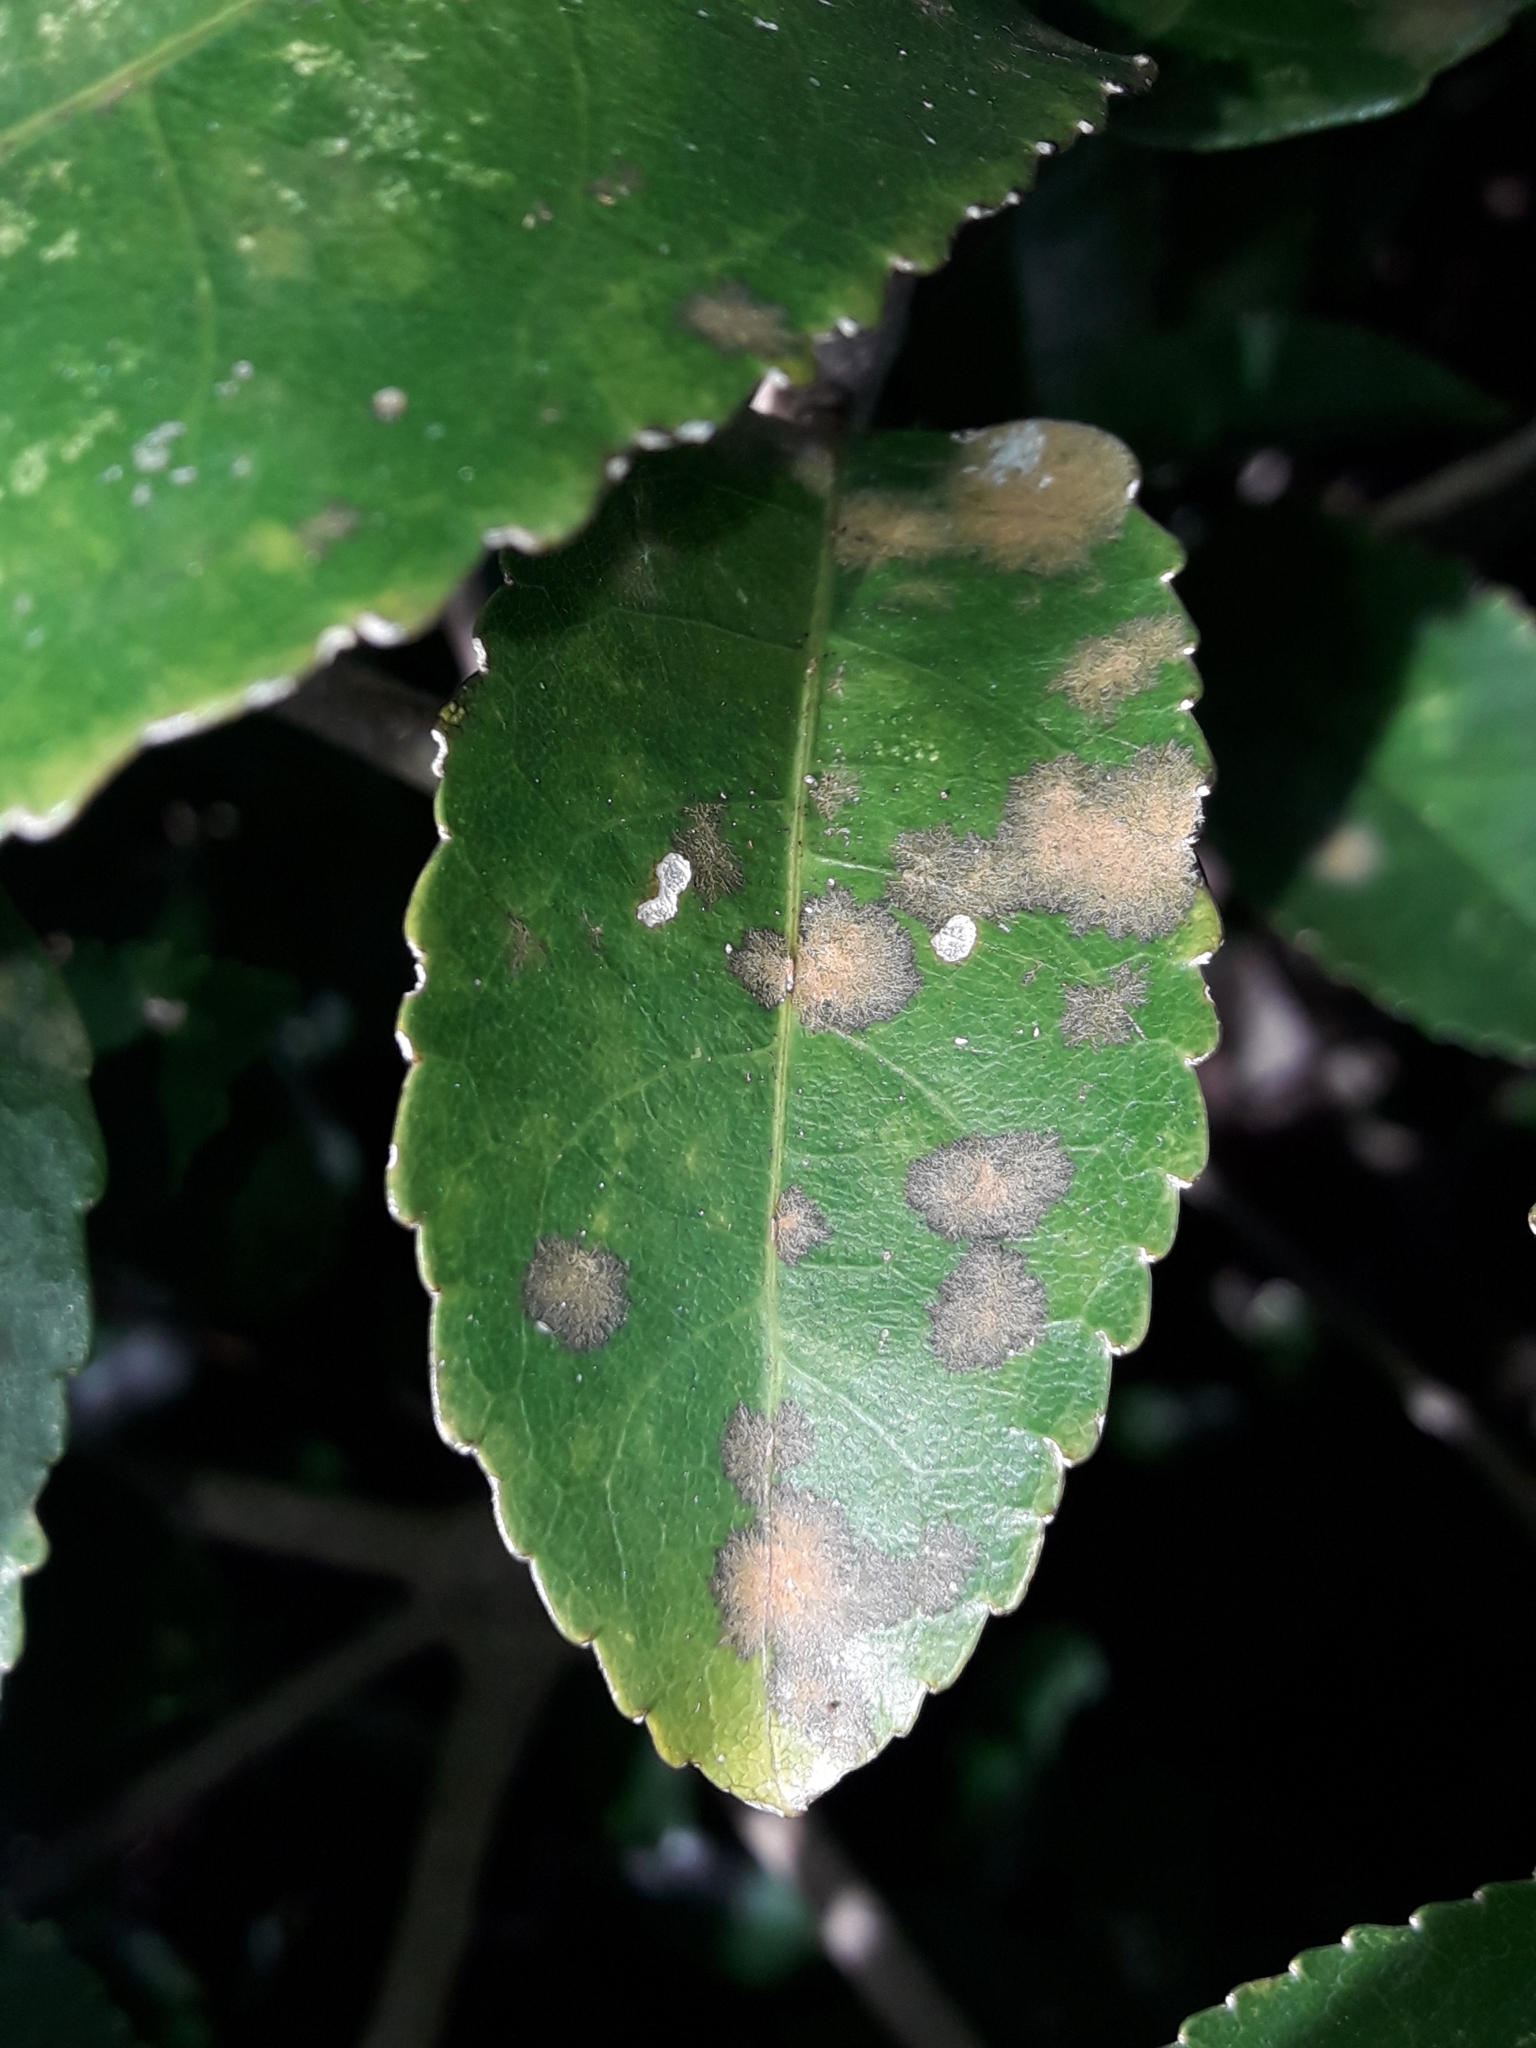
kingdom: Plantae
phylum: Chlorophyta
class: Ulvophyceae
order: Trentepohliales
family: Trentepohliaceae
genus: Cephaleuros
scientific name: Cephaleuros
